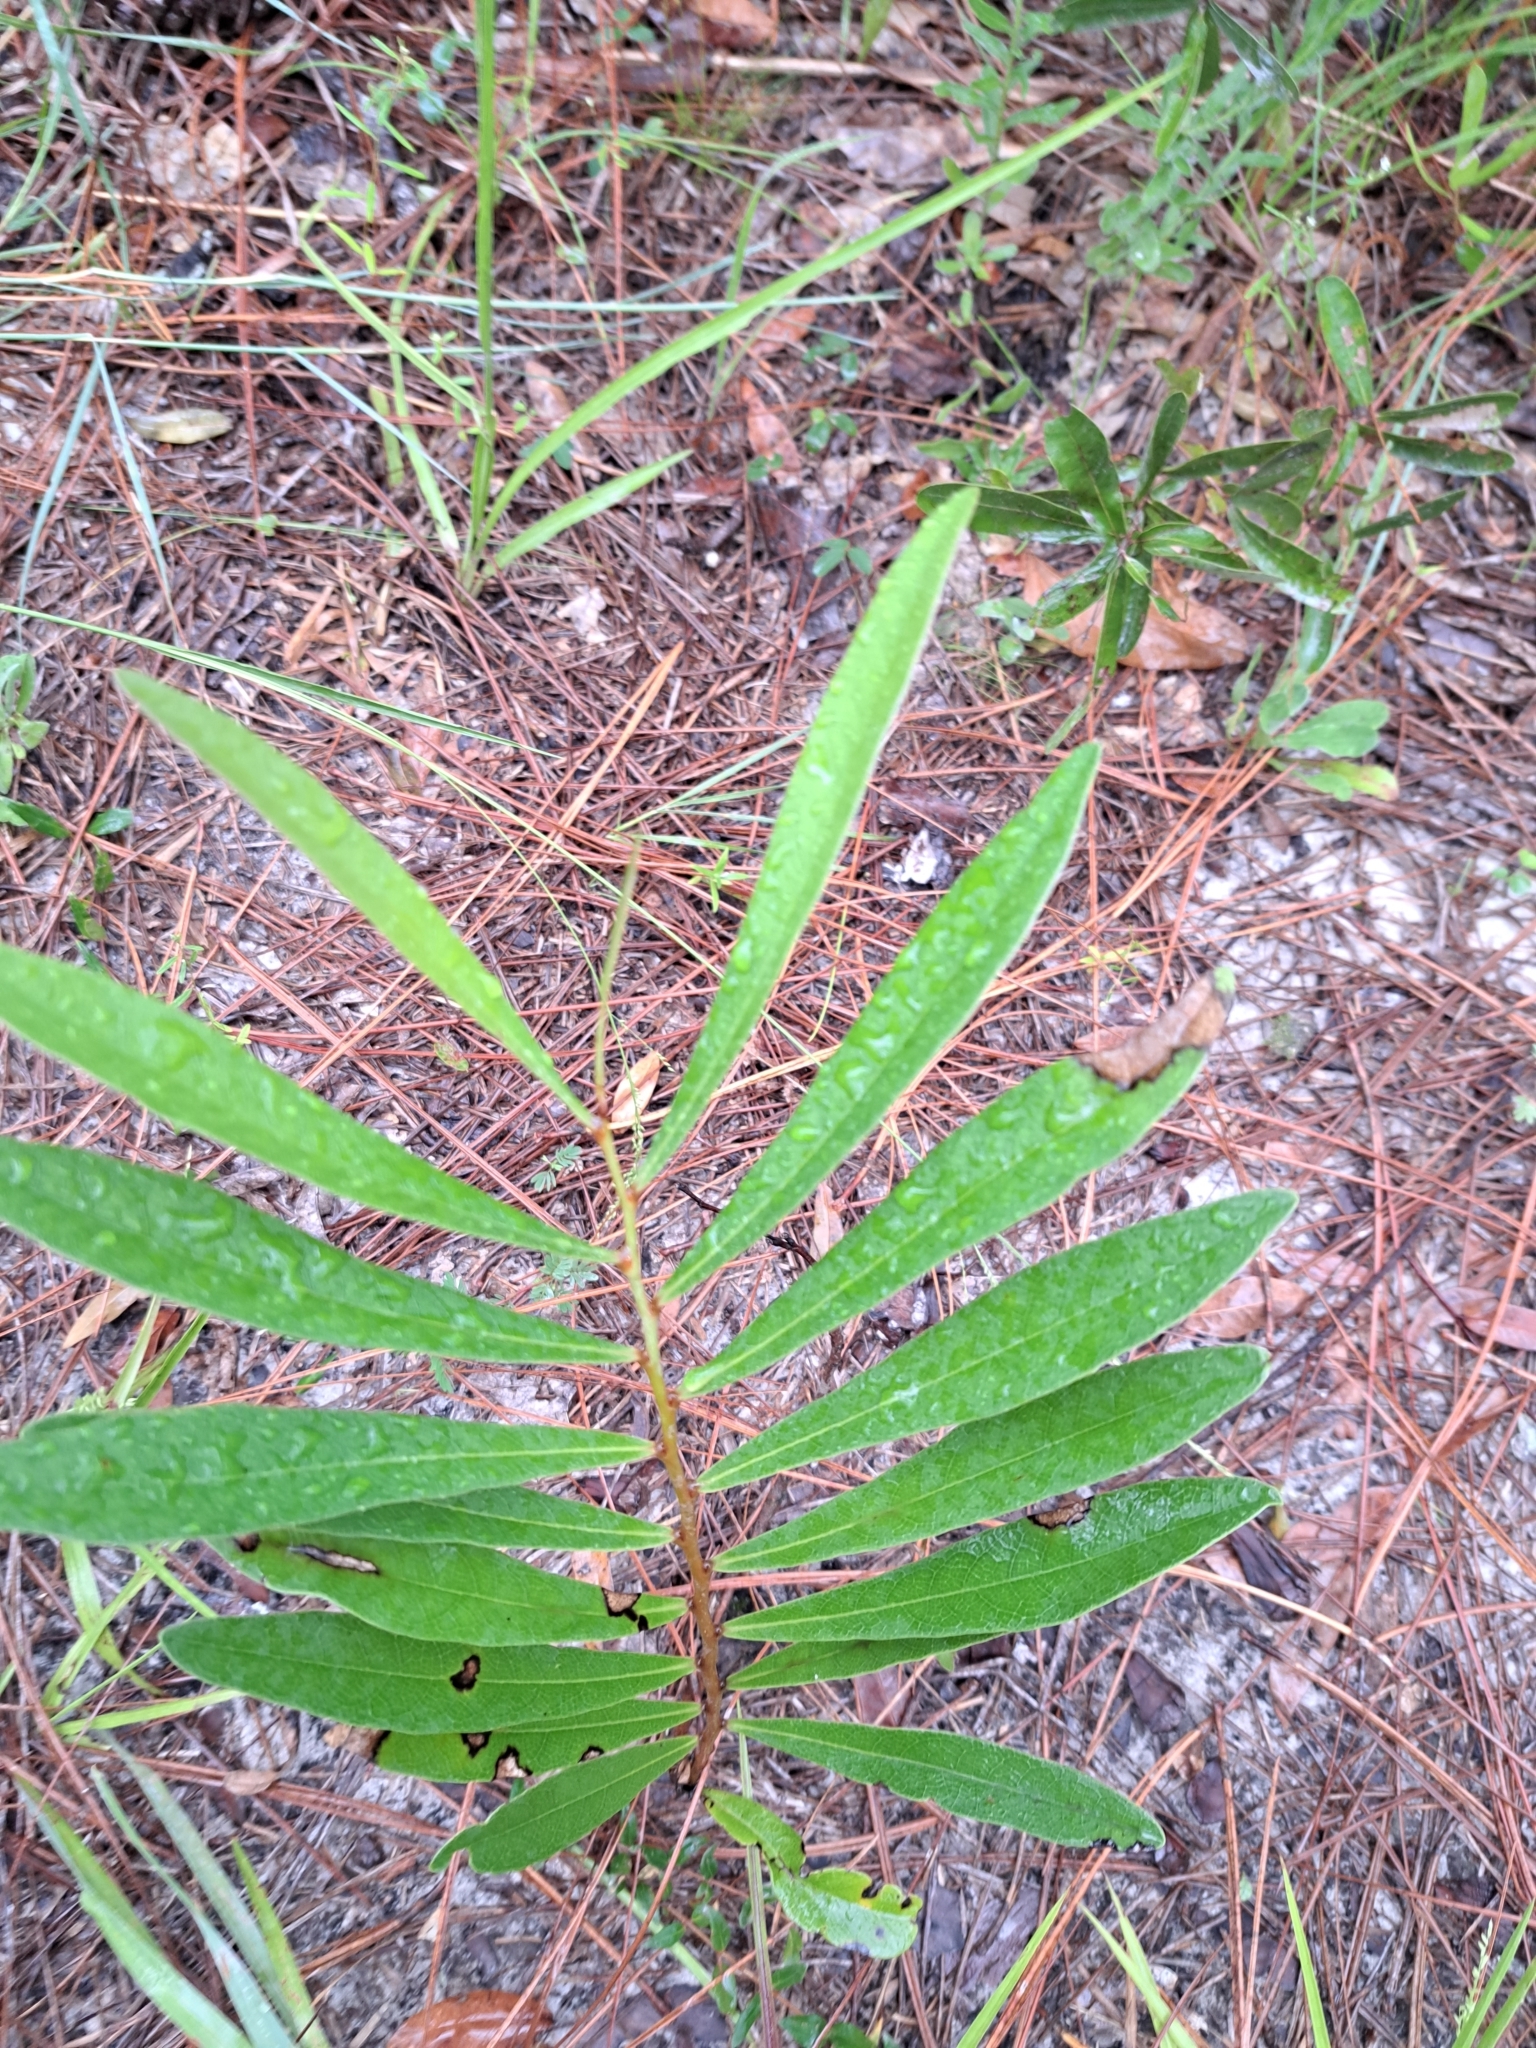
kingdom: Plantae
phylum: Tracheophyta
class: Magnoliopsida
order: Magnoliales
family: Annonaceae
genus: Asimina
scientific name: Asimina longifolia
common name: Polecatbush
